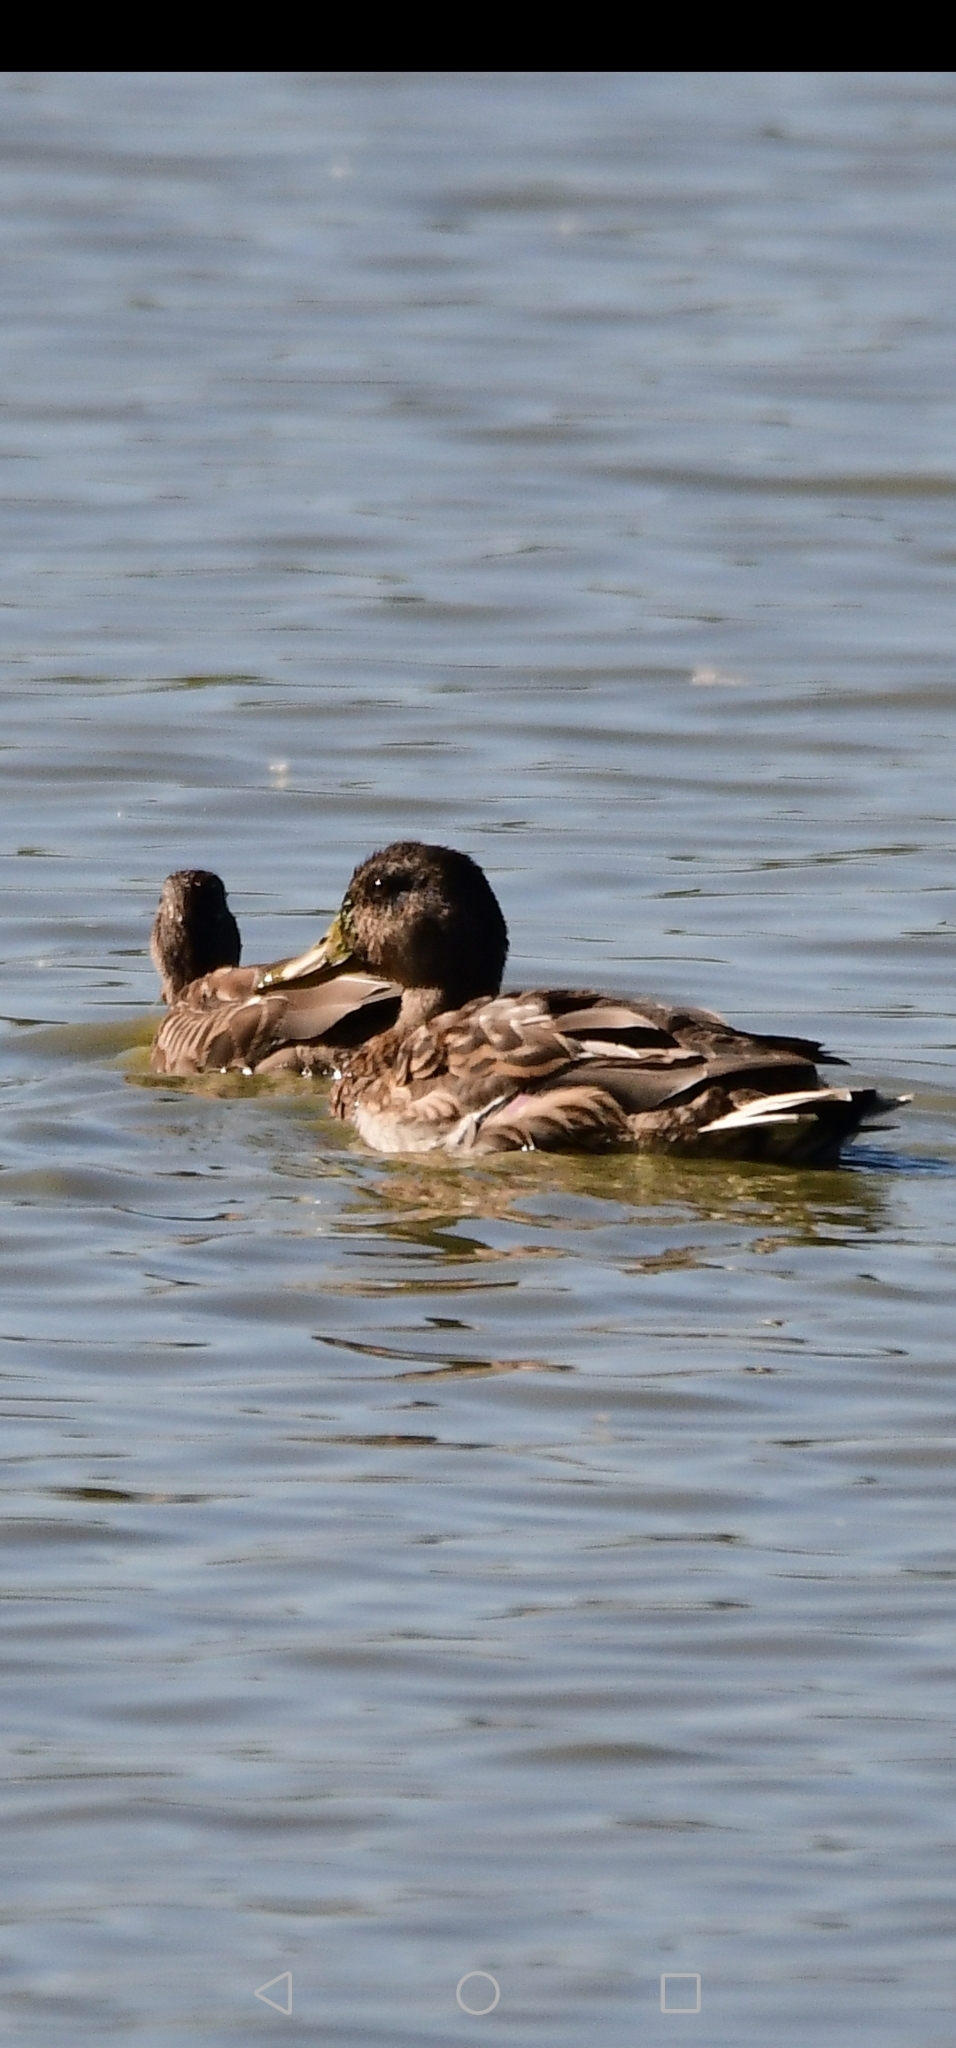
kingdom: Animalia
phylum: Chordata
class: Aves
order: Anseriformes
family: Anatidae
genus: Anas
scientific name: Anas platyrhynchos
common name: Mallard
